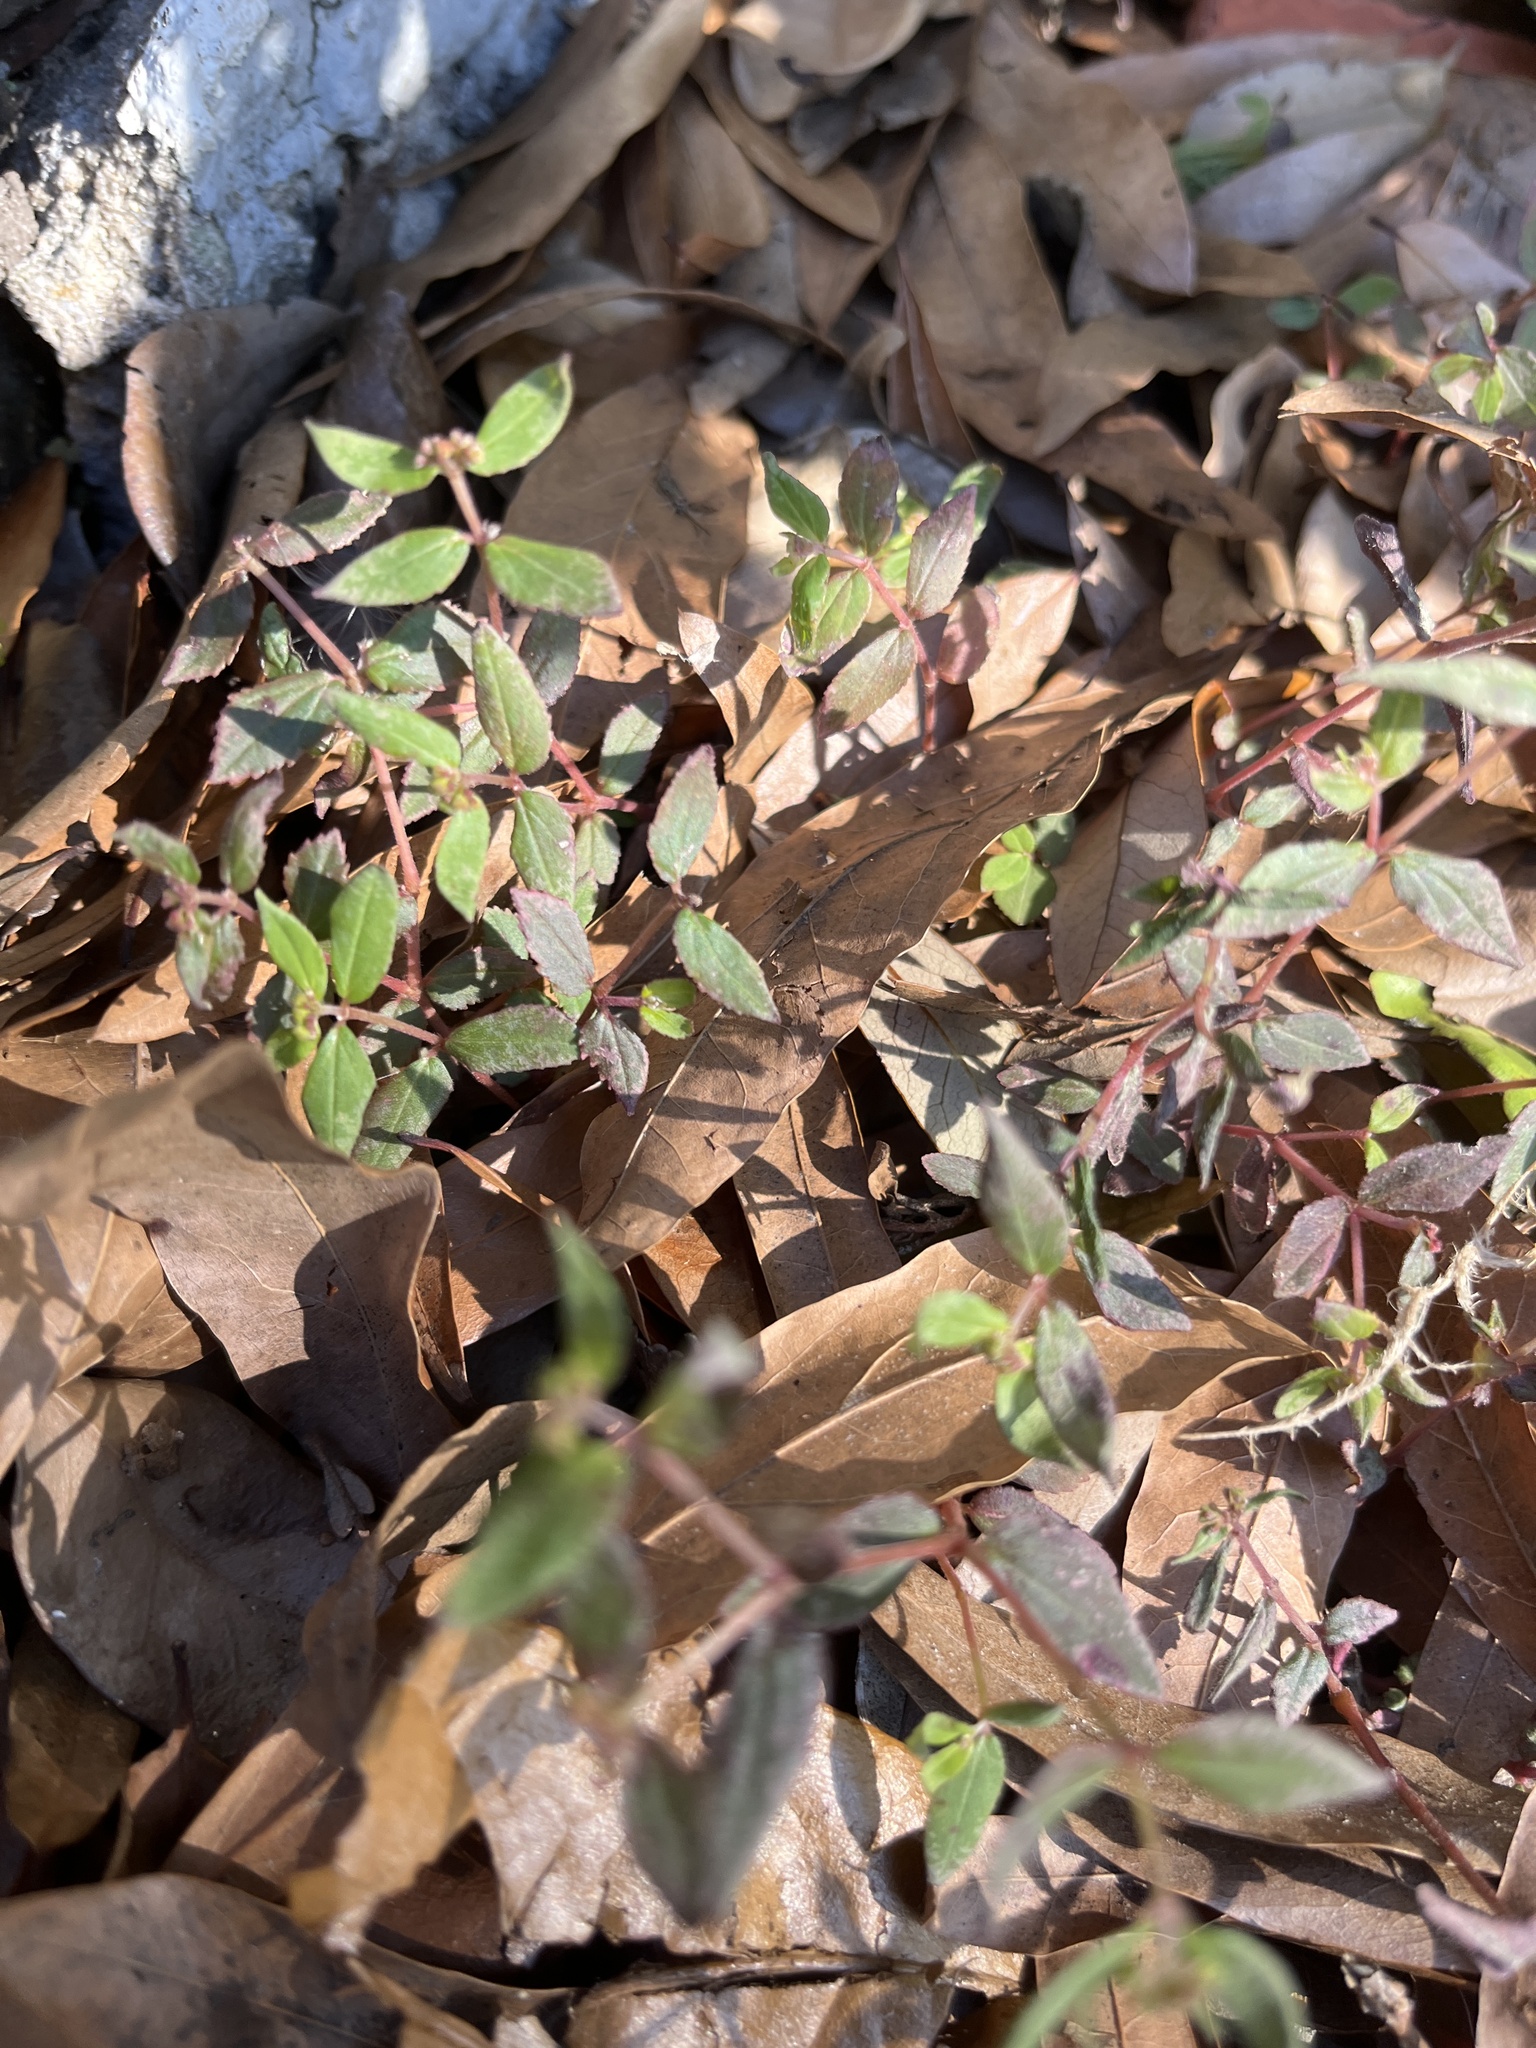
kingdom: Plantae
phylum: Tracheophyta
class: Magnoliopsida
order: Malpighiales
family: Euphorbiaceae
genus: Euphorbia
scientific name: Euphorbia ophthalmica
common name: Florida hammock sandmat
